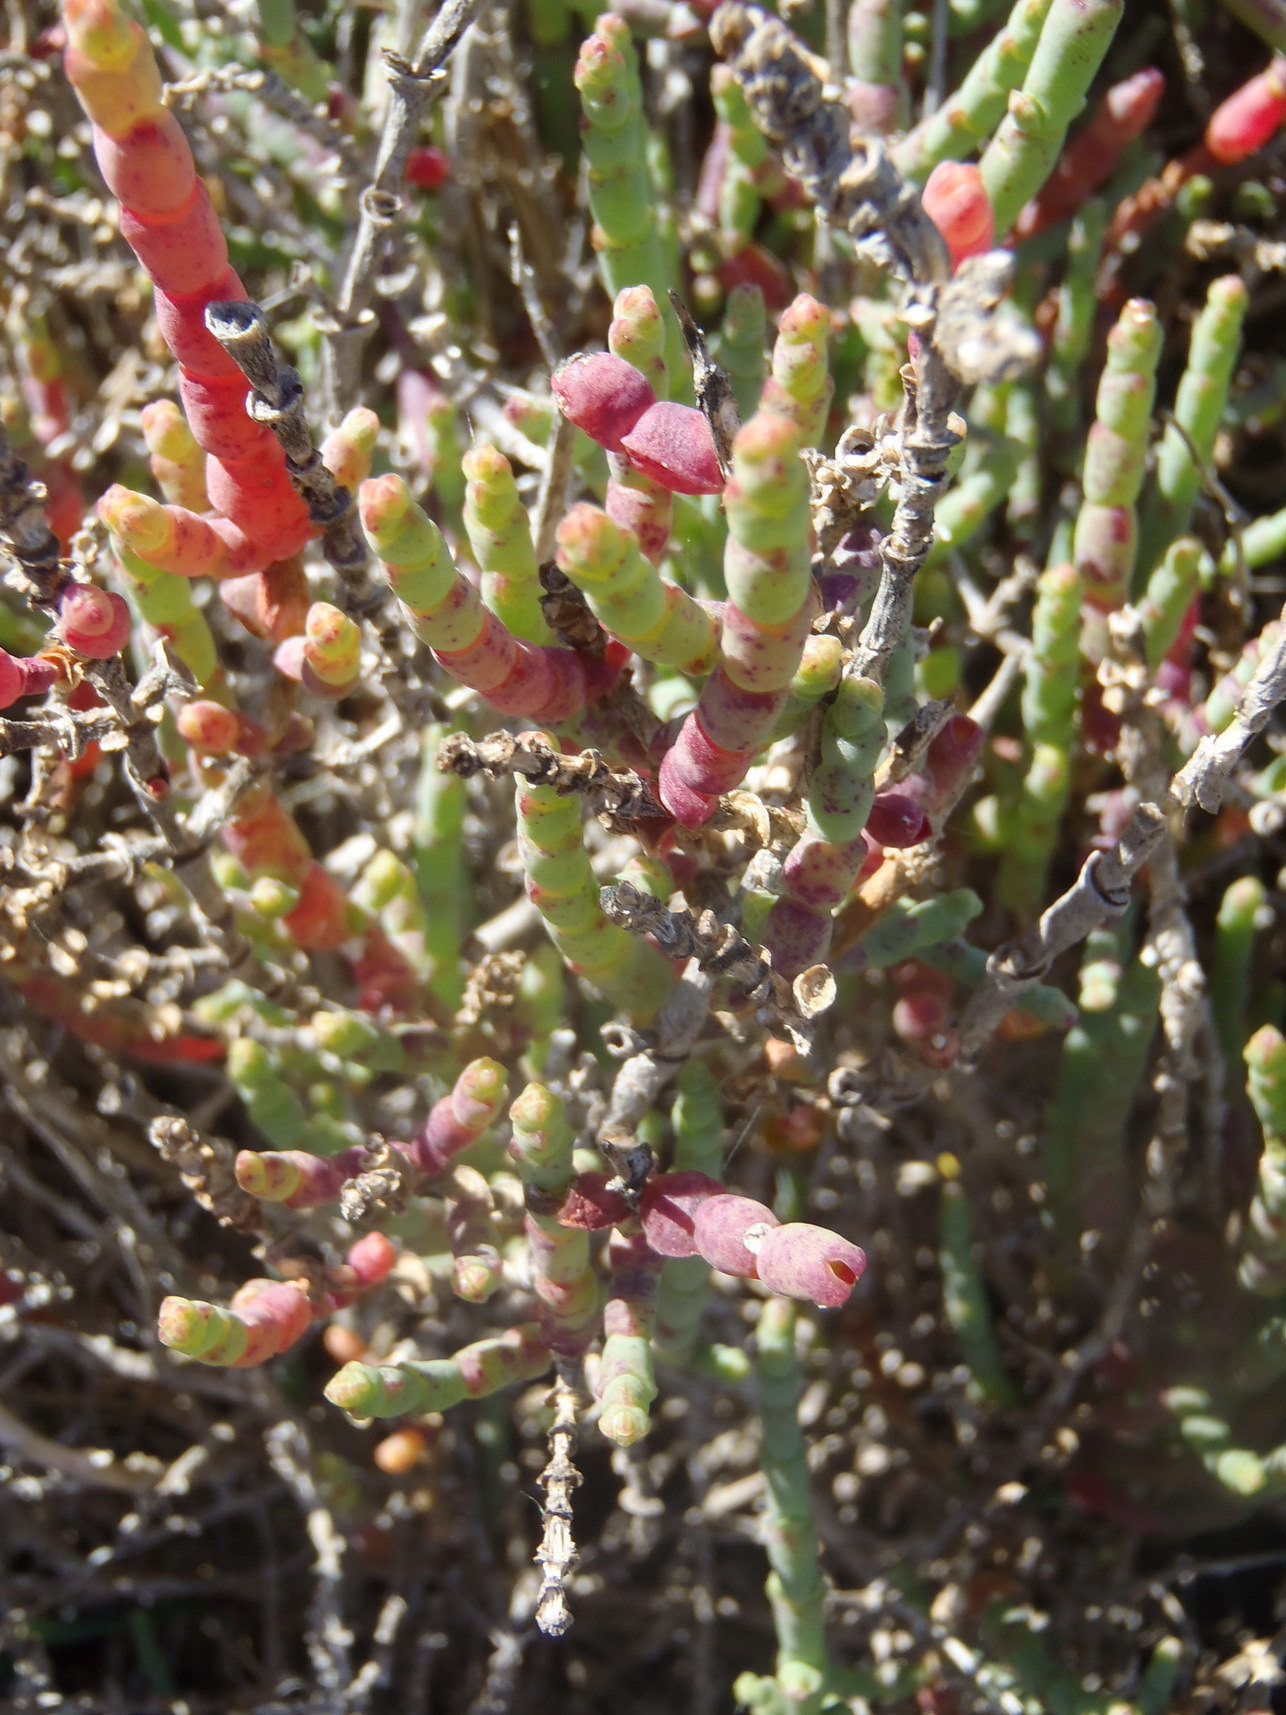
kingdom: Plantae
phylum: Tracheophyta
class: Magnoliopsida
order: Caryophyllales
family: Amaranthaceae
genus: Salicornia
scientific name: Salicornia pillansii
